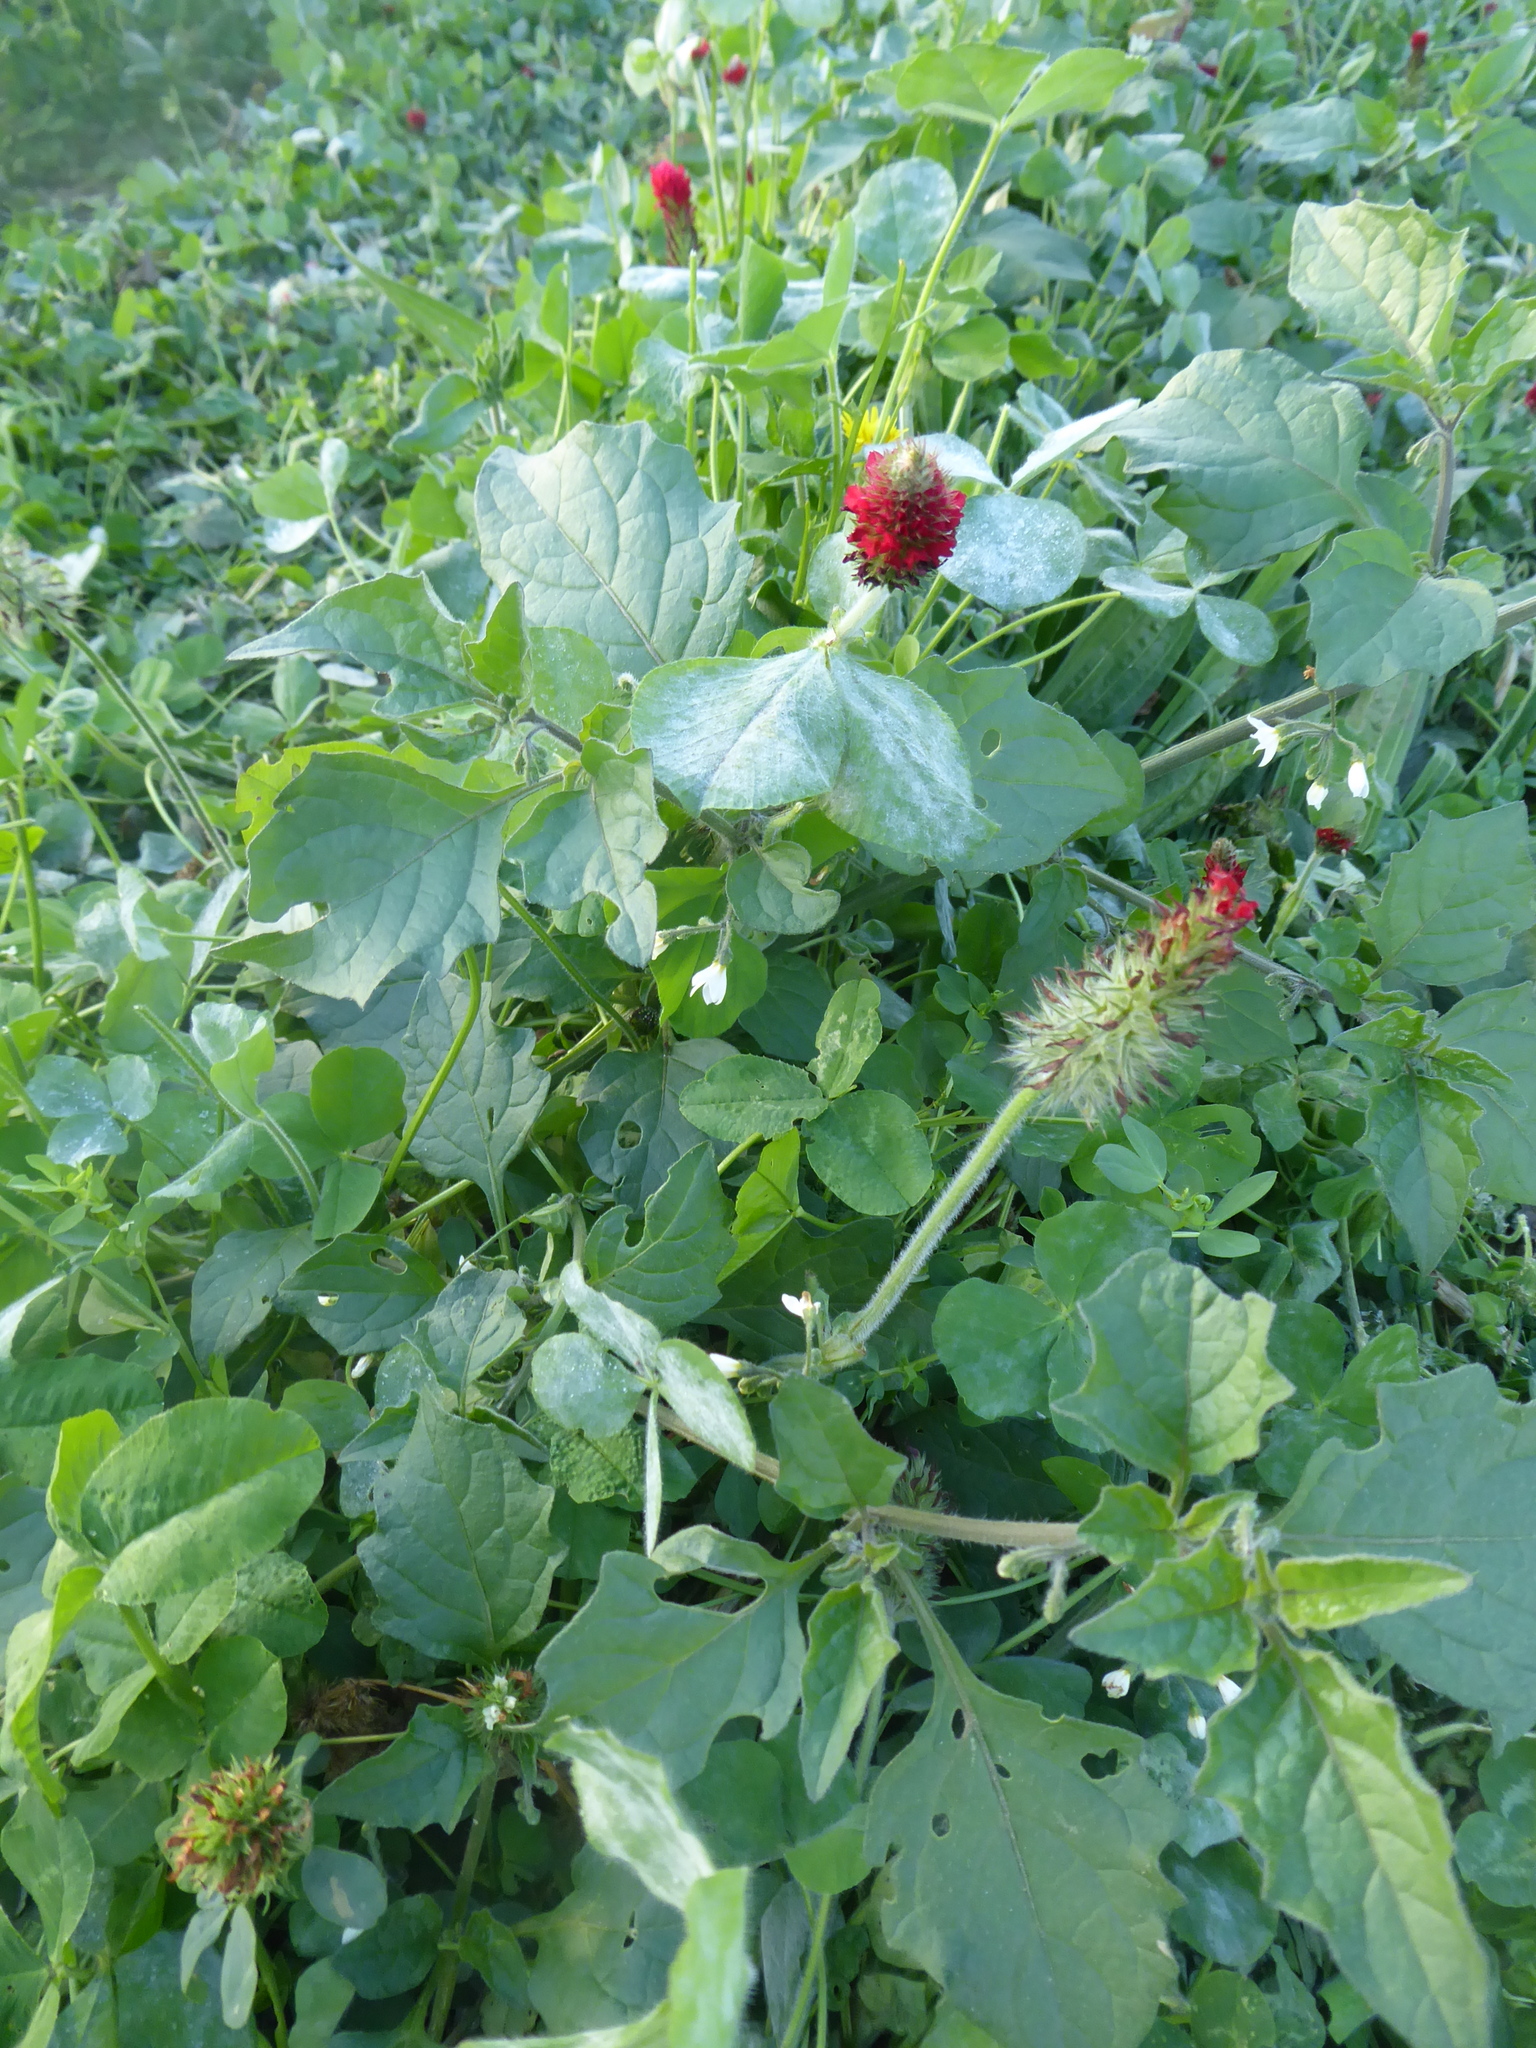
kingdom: Plantae
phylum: Tracheophyta
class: Magnoliopsida
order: Fabales
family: Fabaceae
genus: Trifolium
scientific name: Trifolium incarnatum
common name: Crimson clover
